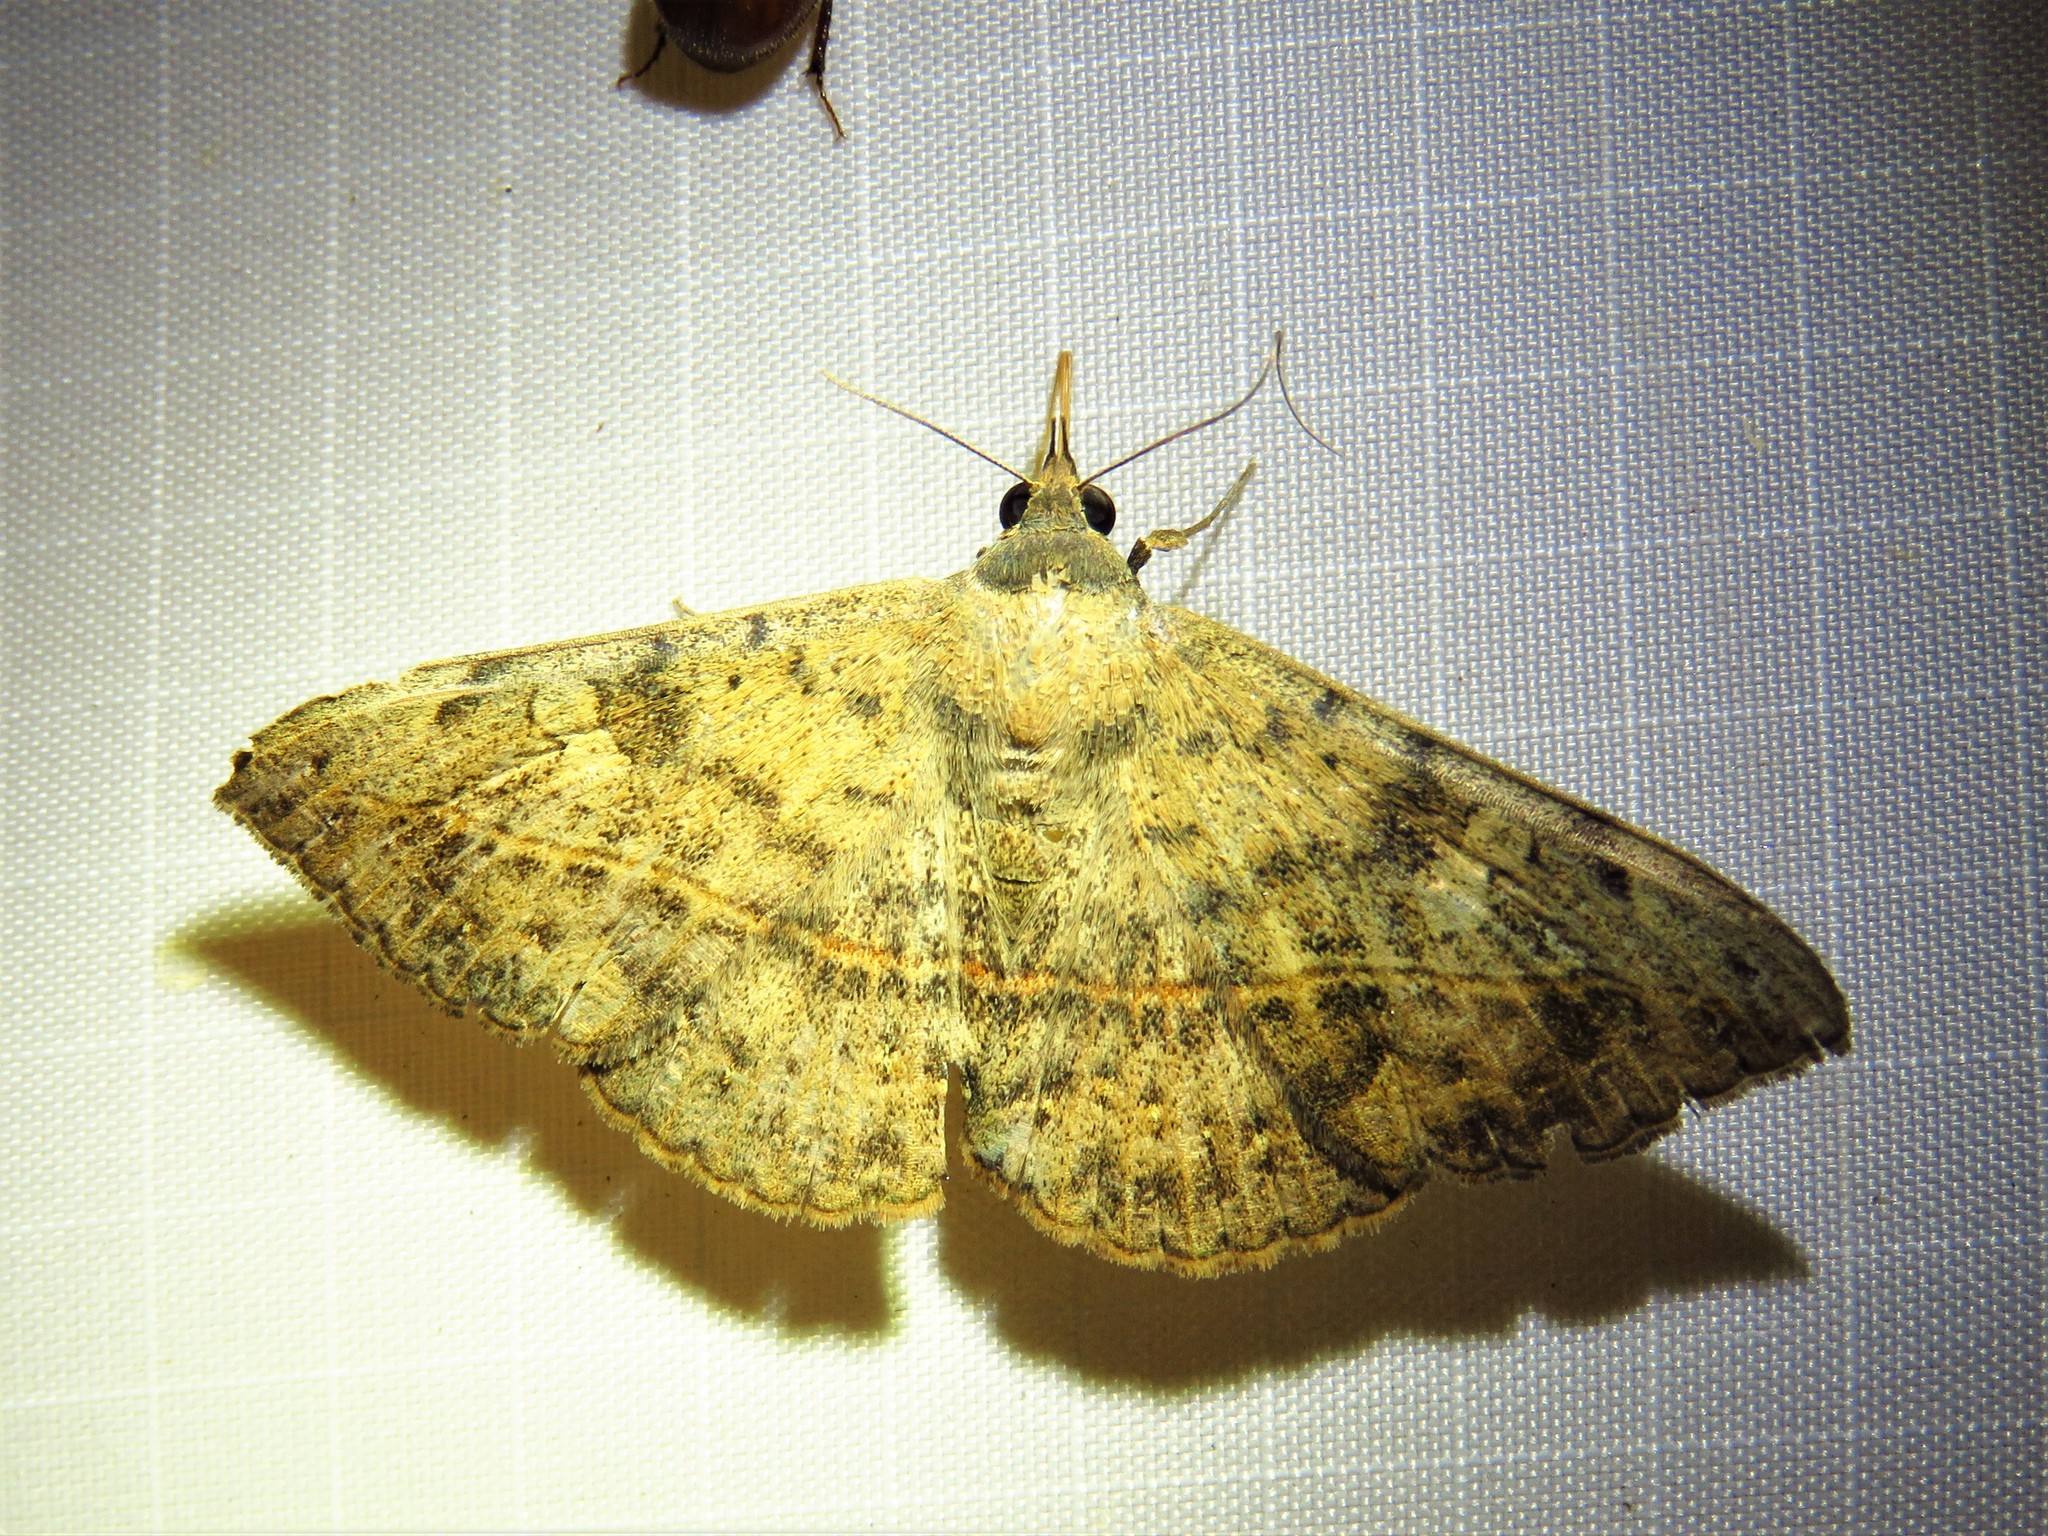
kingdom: Animalia
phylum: Arthropoda
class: Insecta
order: Lepidoptera
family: Erebidae
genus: Anticarsia
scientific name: Anticarsia gemmatalis
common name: Cutworm moth
